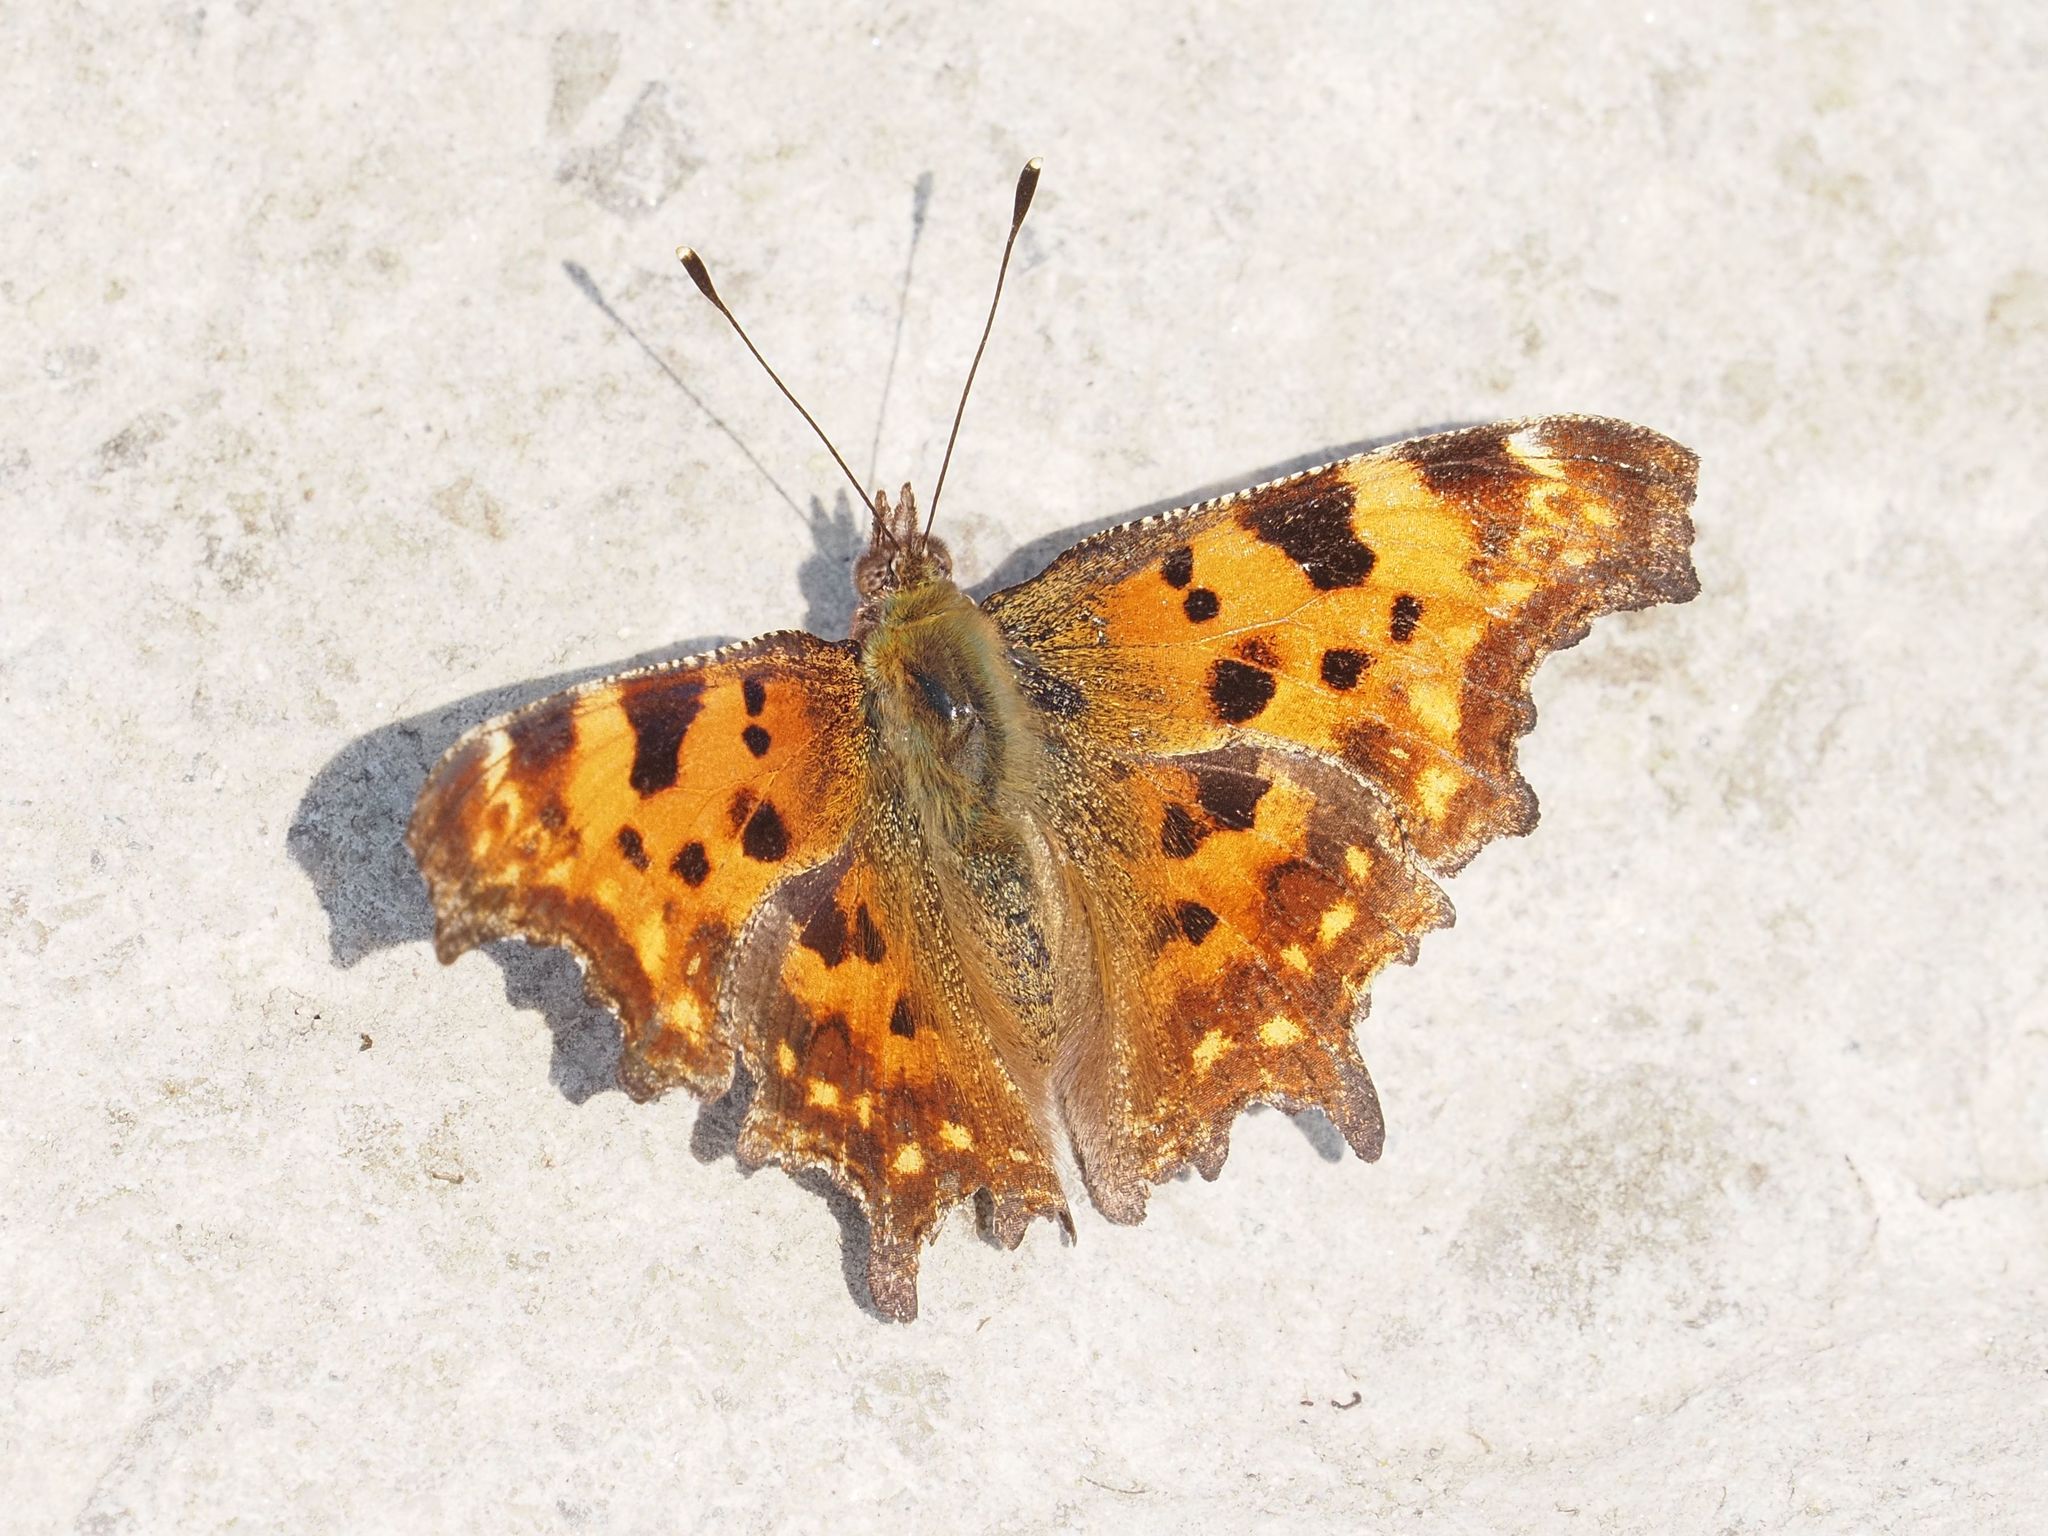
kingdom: Animalia
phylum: Arthropoda
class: Insecta
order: Lepidoptera
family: Nymphalidae
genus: Polygonia
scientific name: Polygonia c-album
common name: Comma
